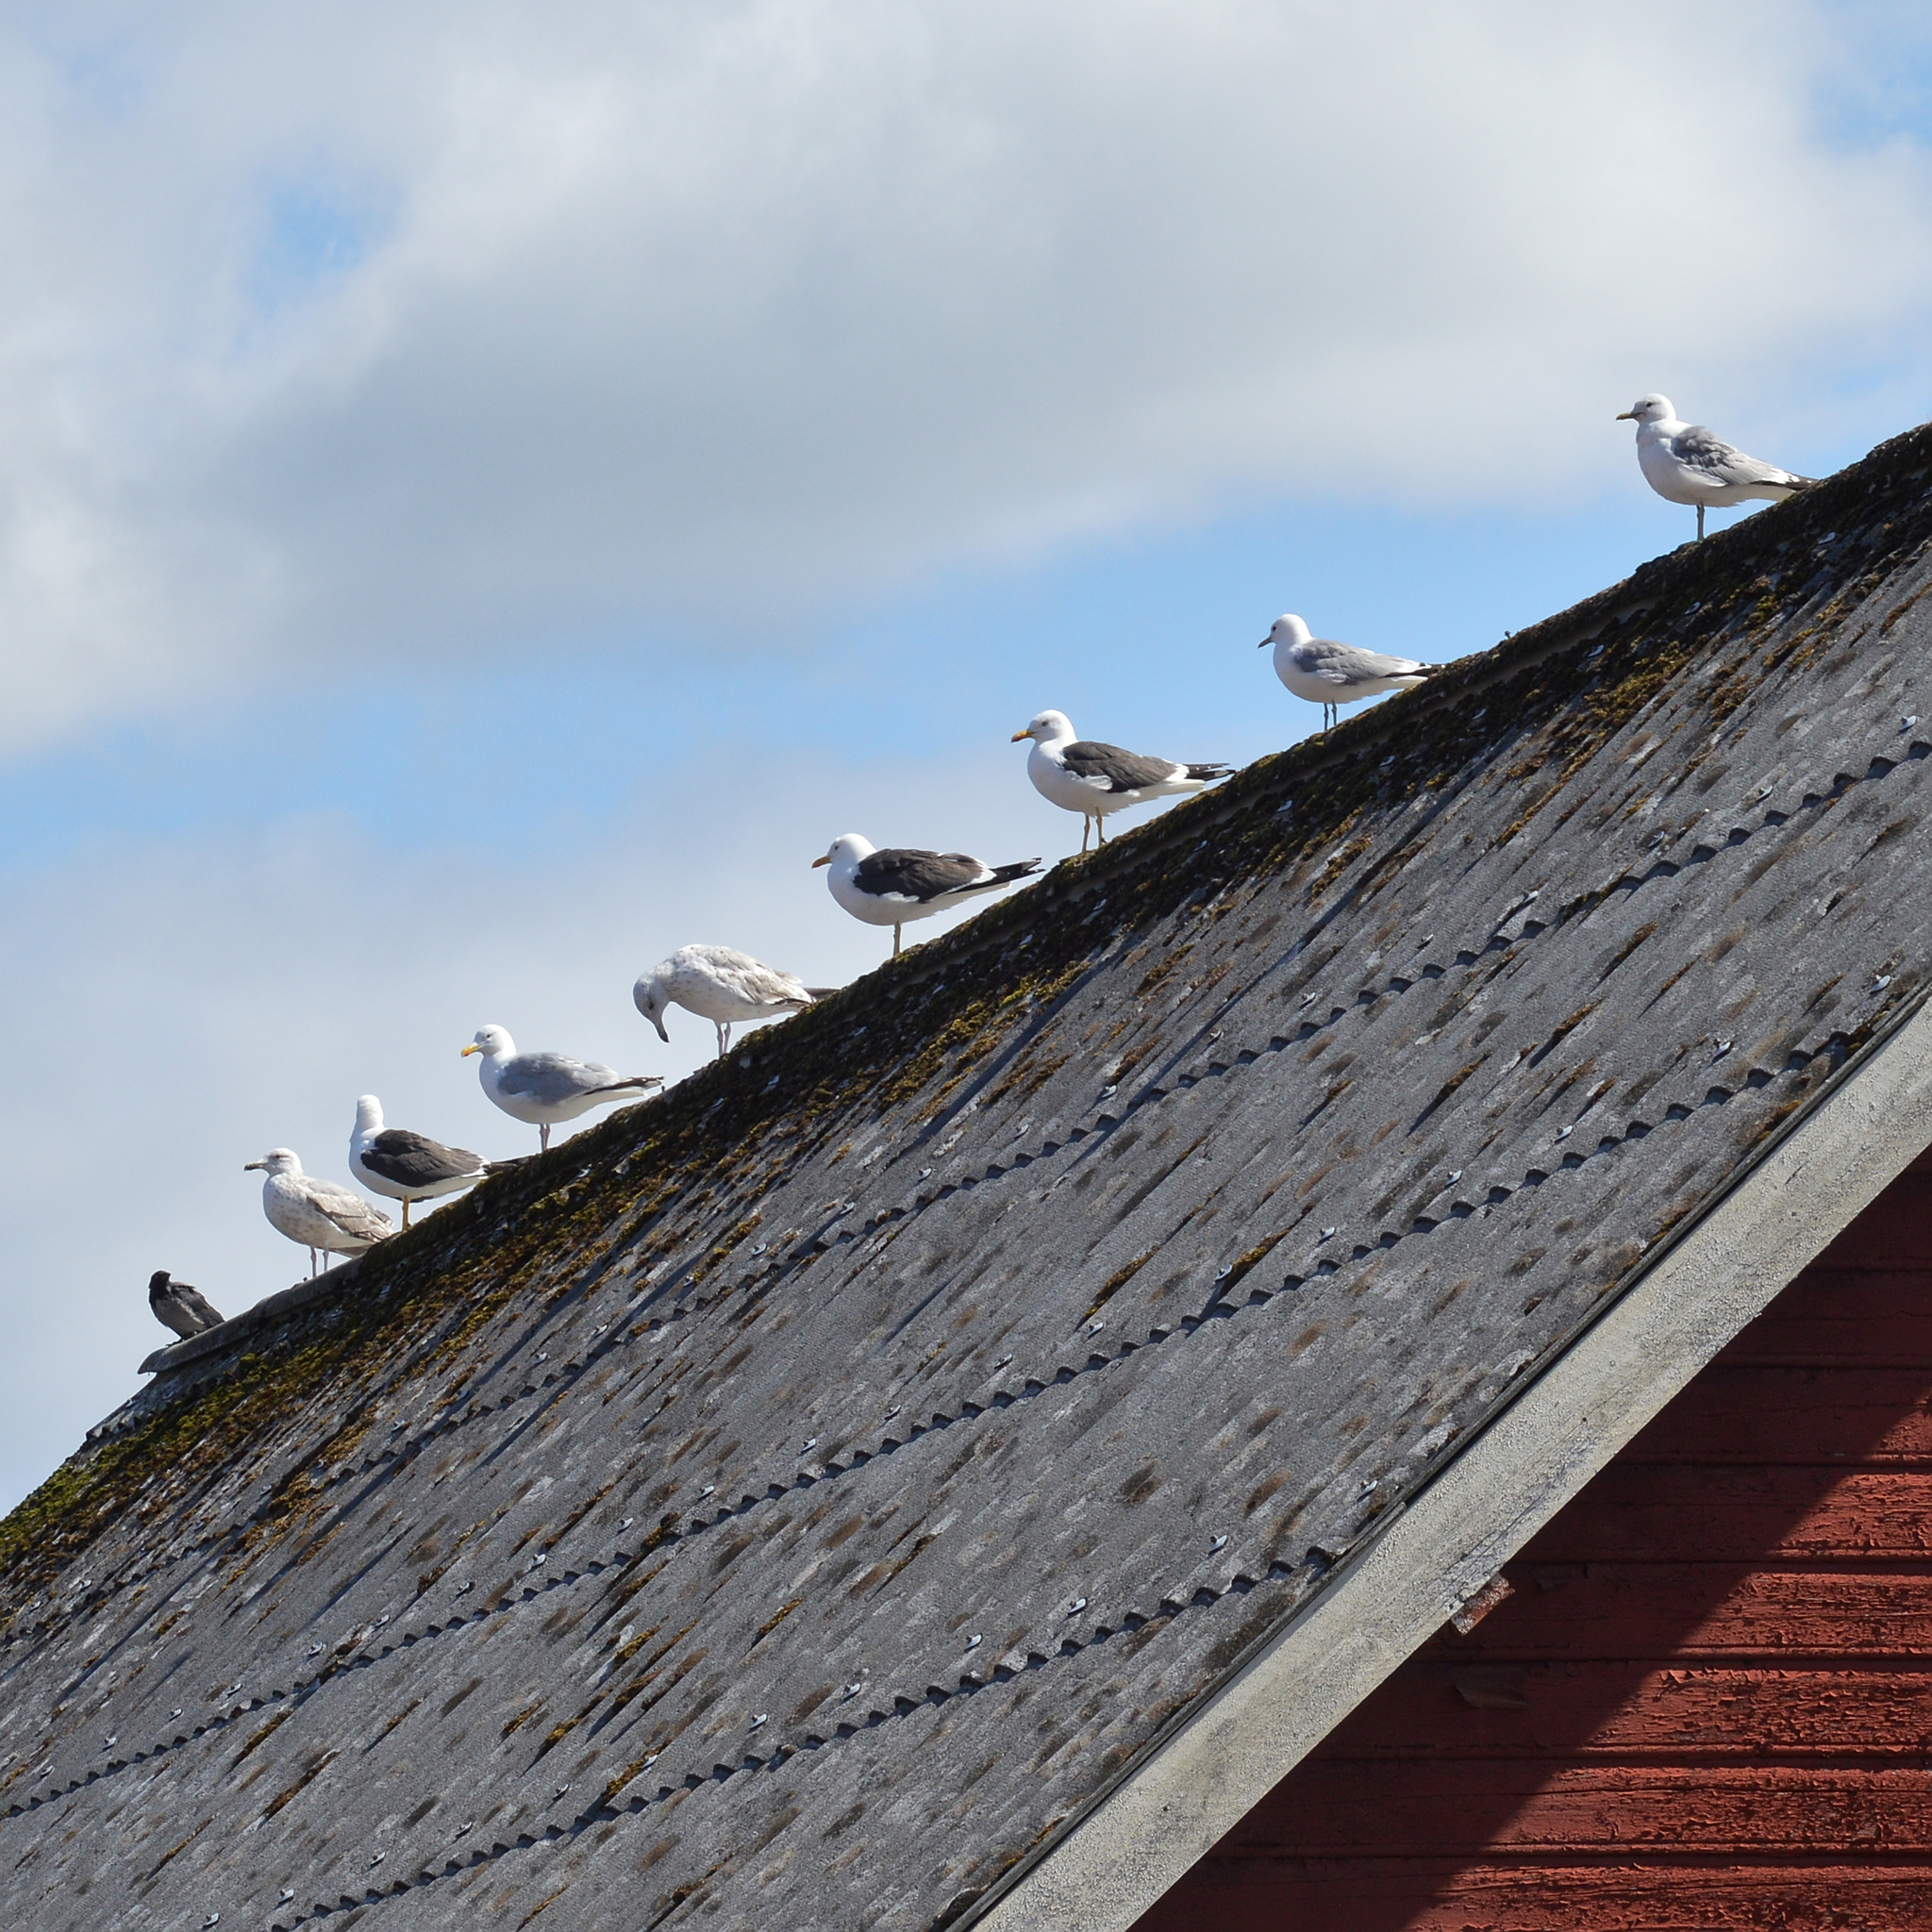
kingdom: Animalia
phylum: Chordata
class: Aves
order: Charadriiformes
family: Laridae
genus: Larus
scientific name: Larus fuscus
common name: Lesser black-backed gull
